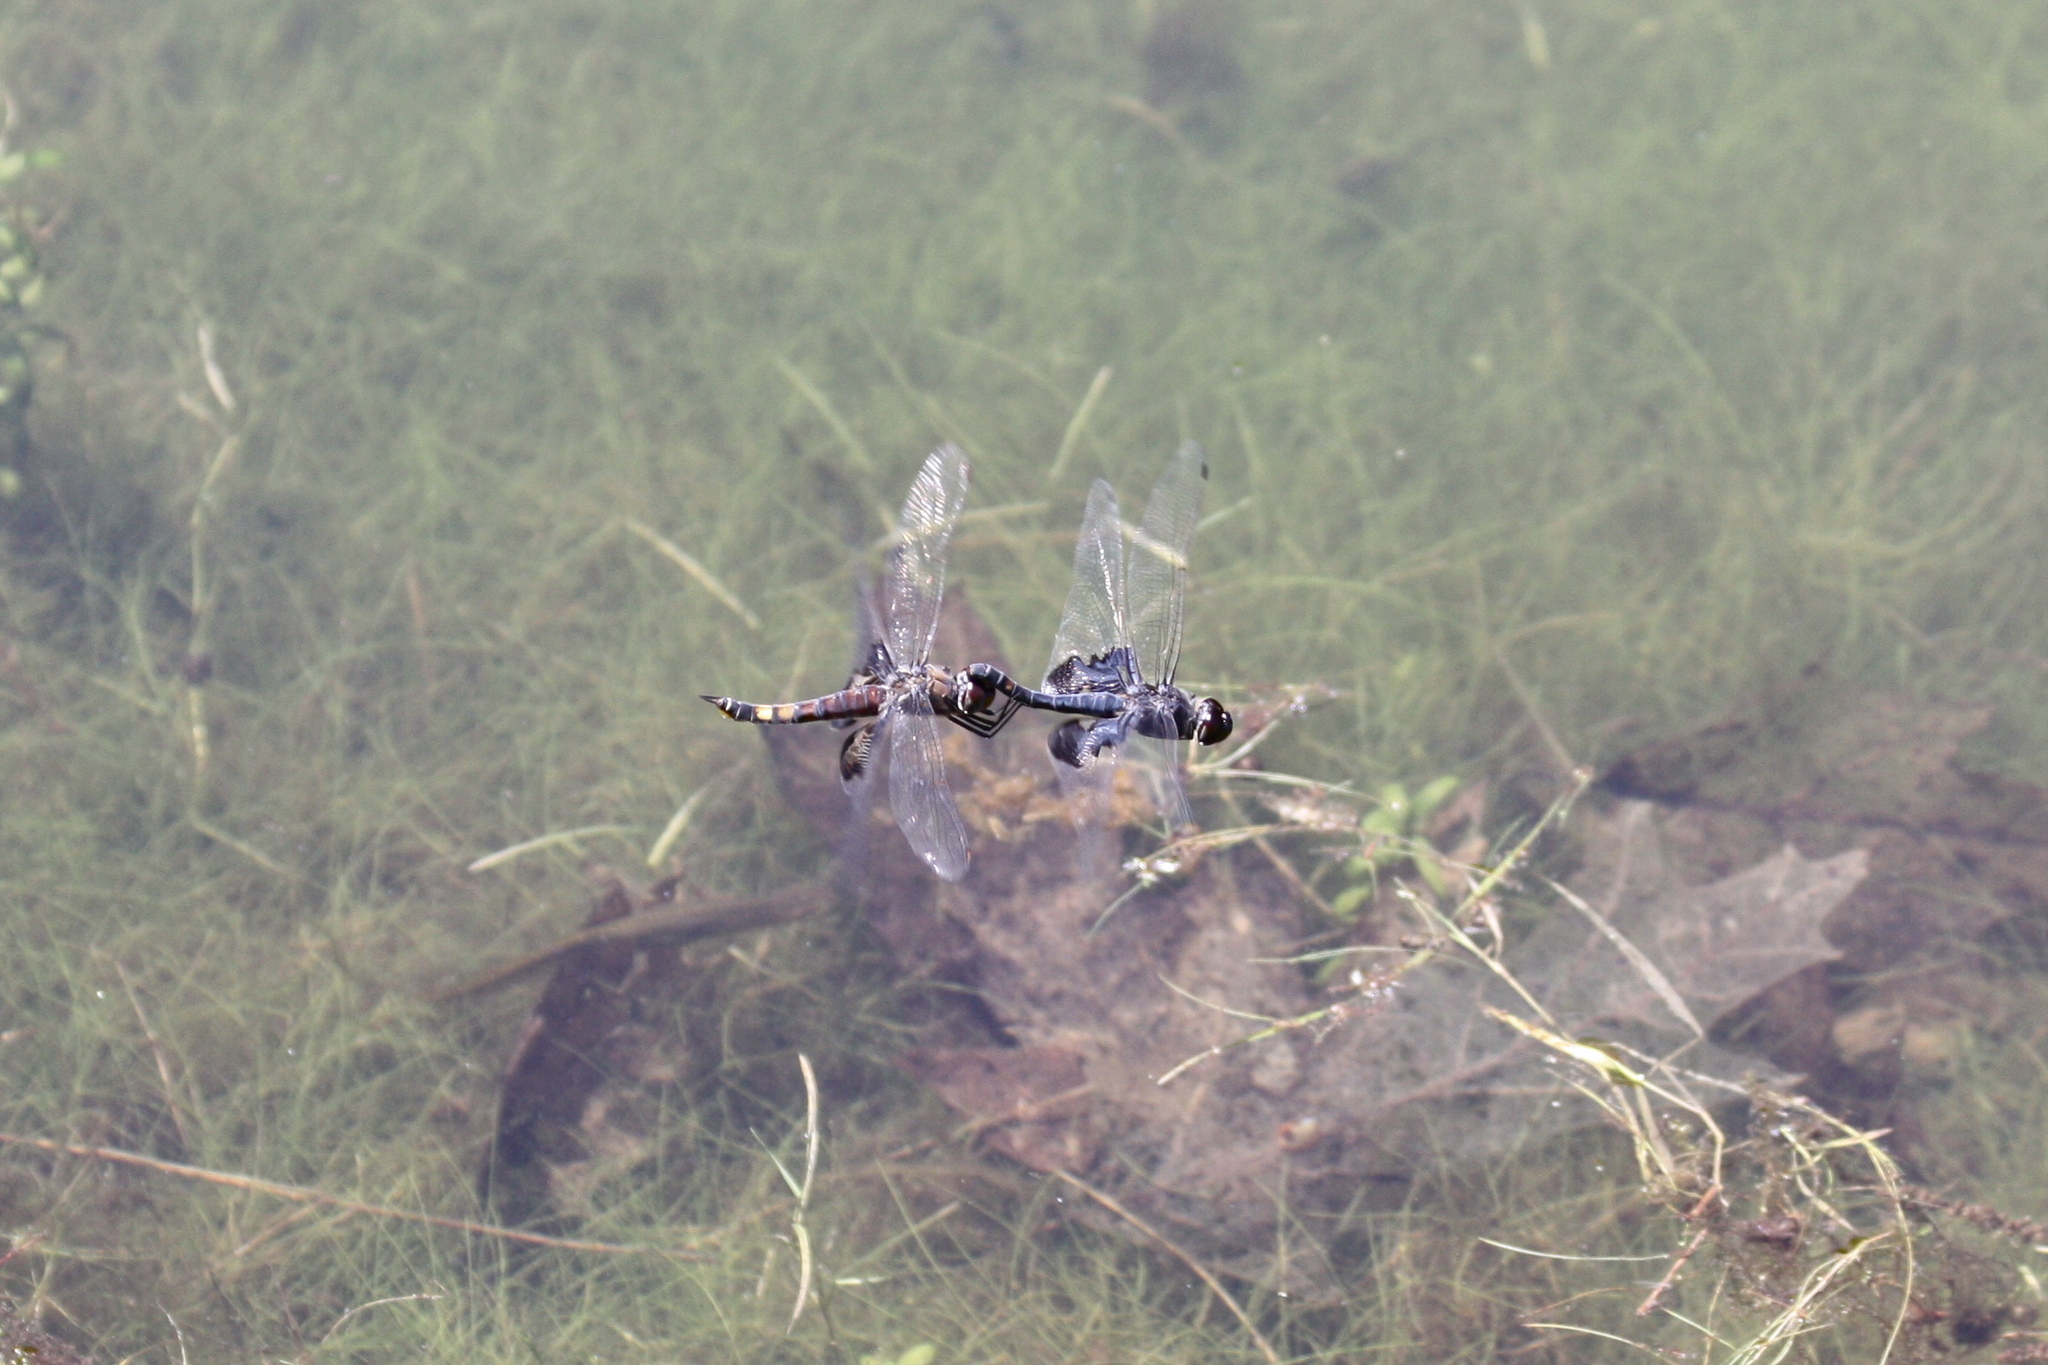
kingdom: Animalia
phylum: Arthropoda
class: Insecta
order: Odonata
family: Libellulidae
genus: Tramea
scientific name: Tramea lacerata
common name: Black saddlebags
